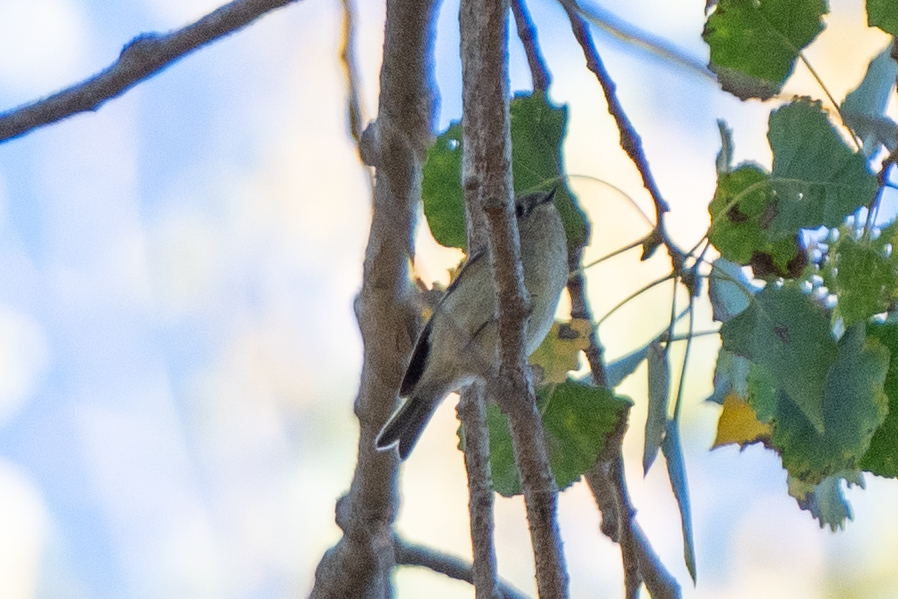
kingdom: Animalia
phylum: Chordata
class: Aves
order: Passeriformes
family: Regulidae
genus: Regulus
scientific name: Regulus calendula
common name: Ruby-crowned kinglet
